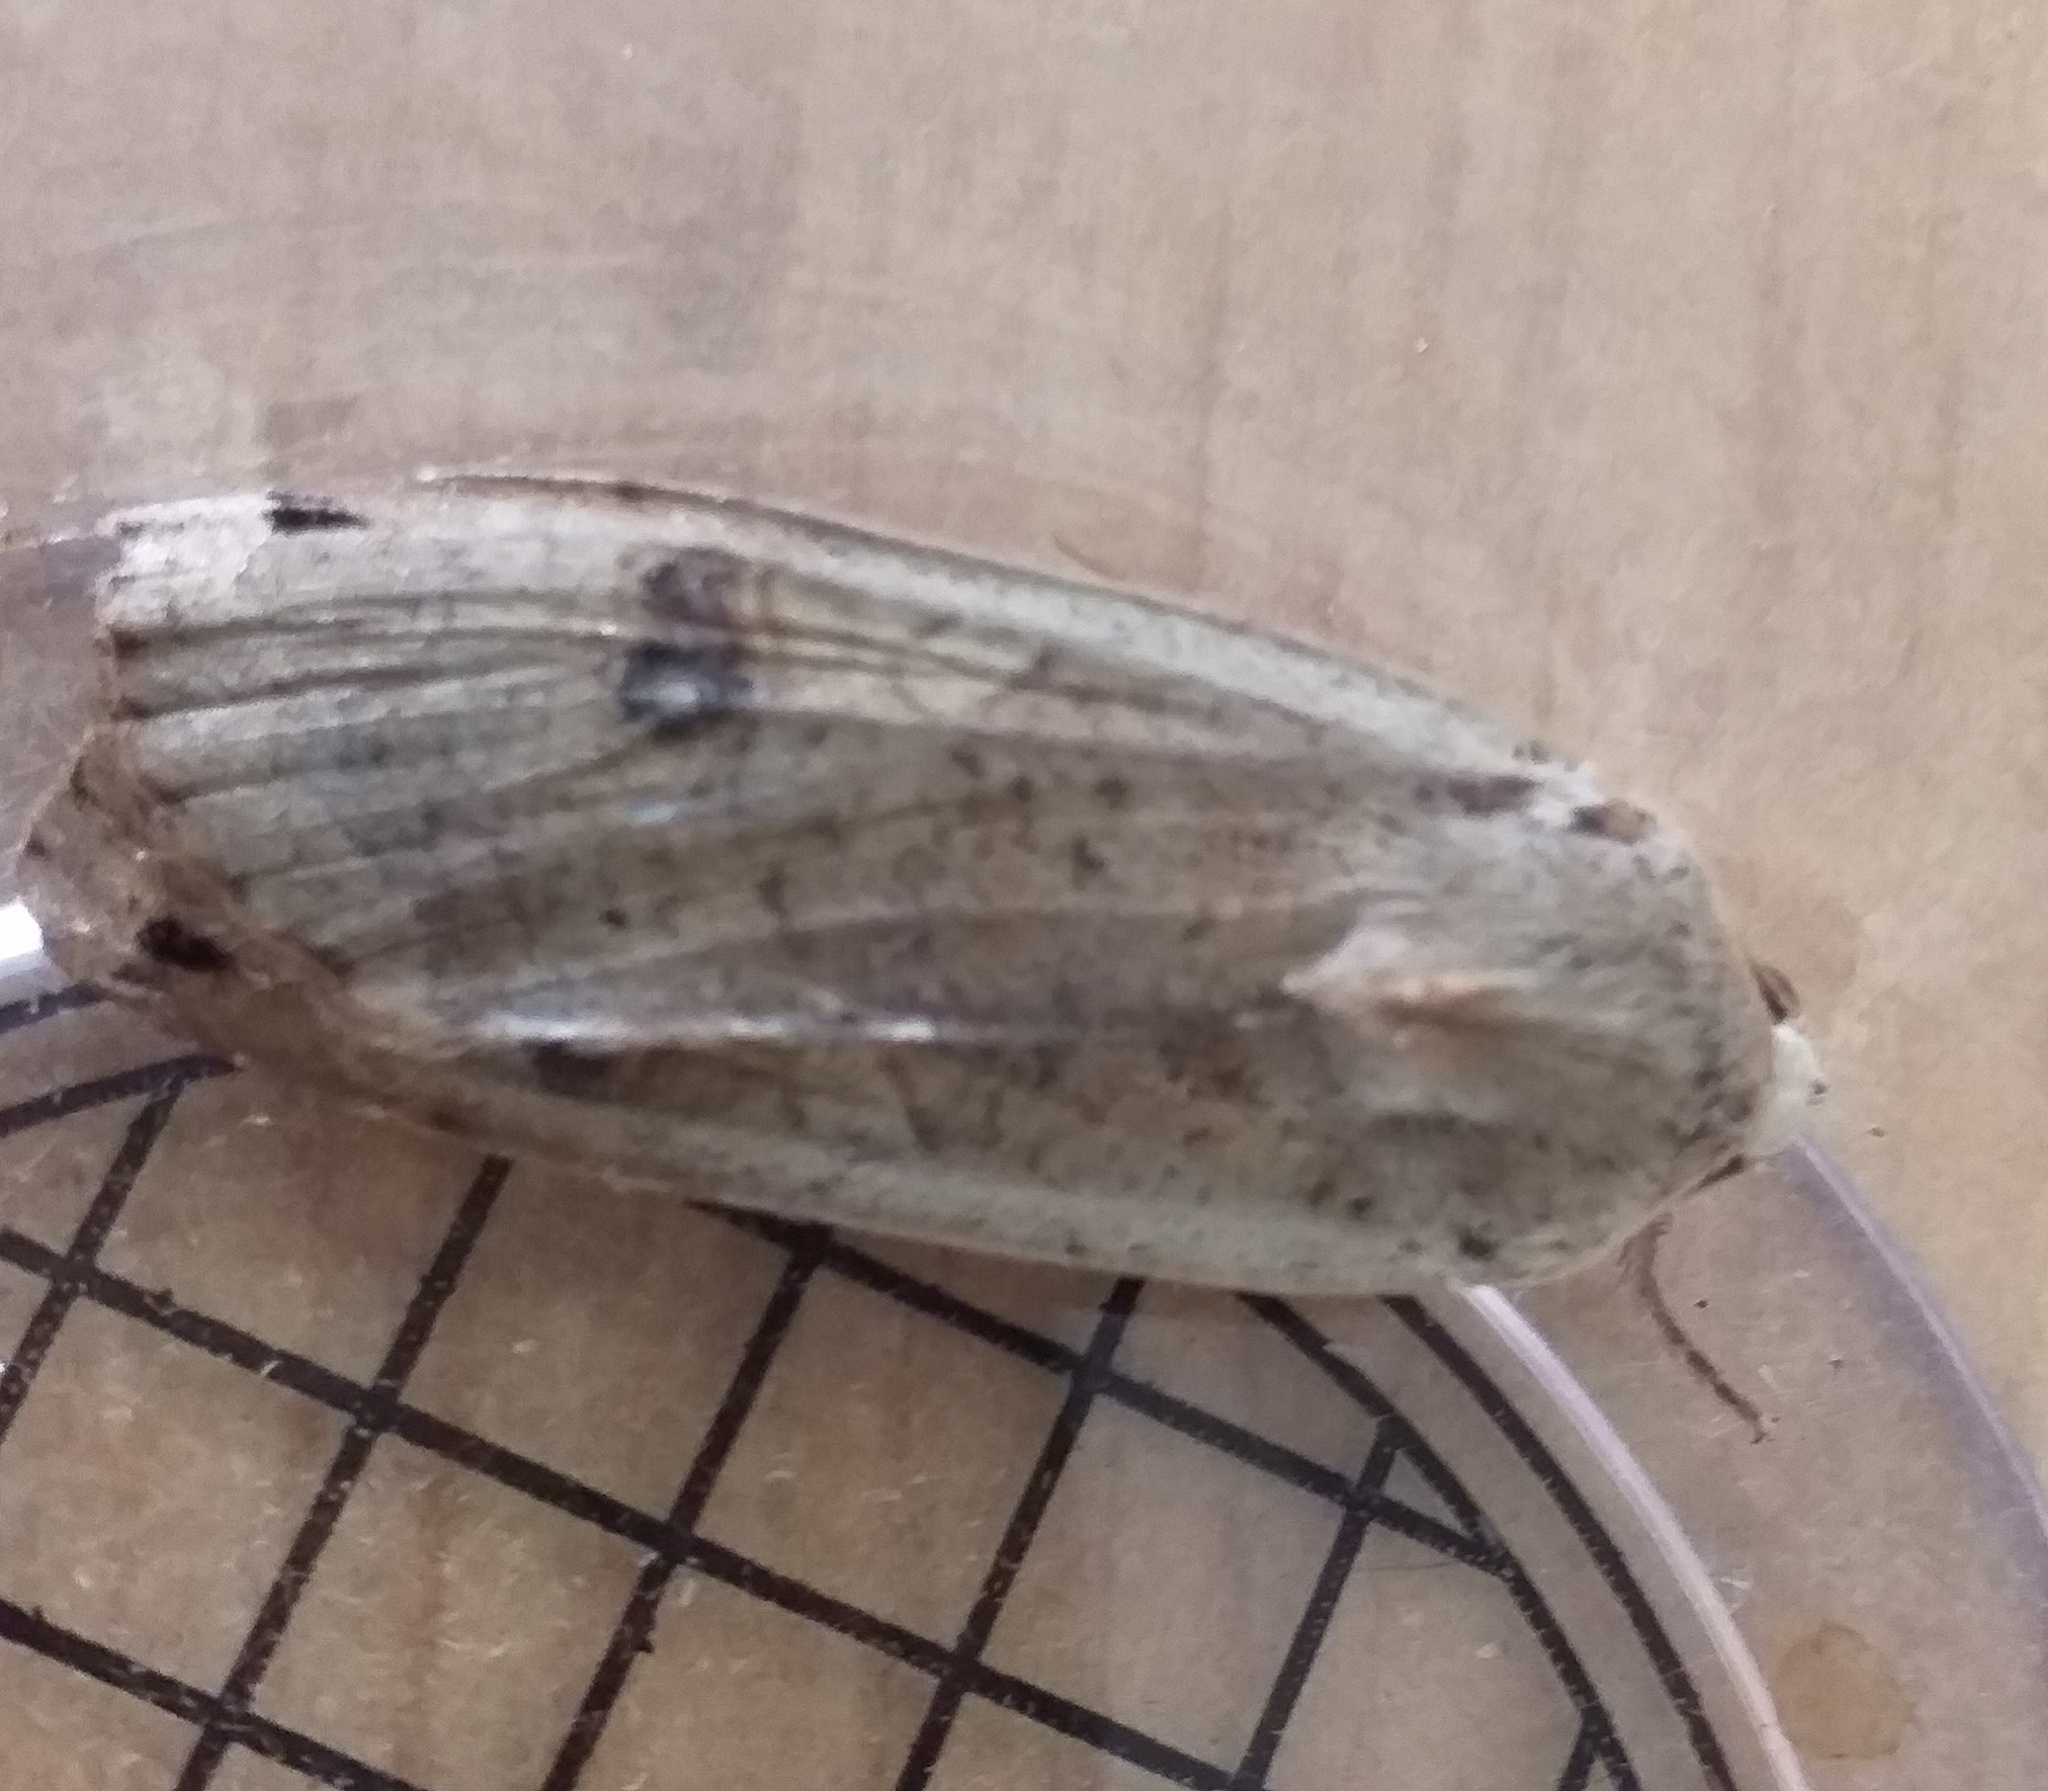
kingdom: Animalia
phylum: Arthropoda
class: Insecta
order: Lepidoptera
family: Noctuidae
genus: Noctua
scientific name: Noctua pronuba
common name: Large yellow underwing
